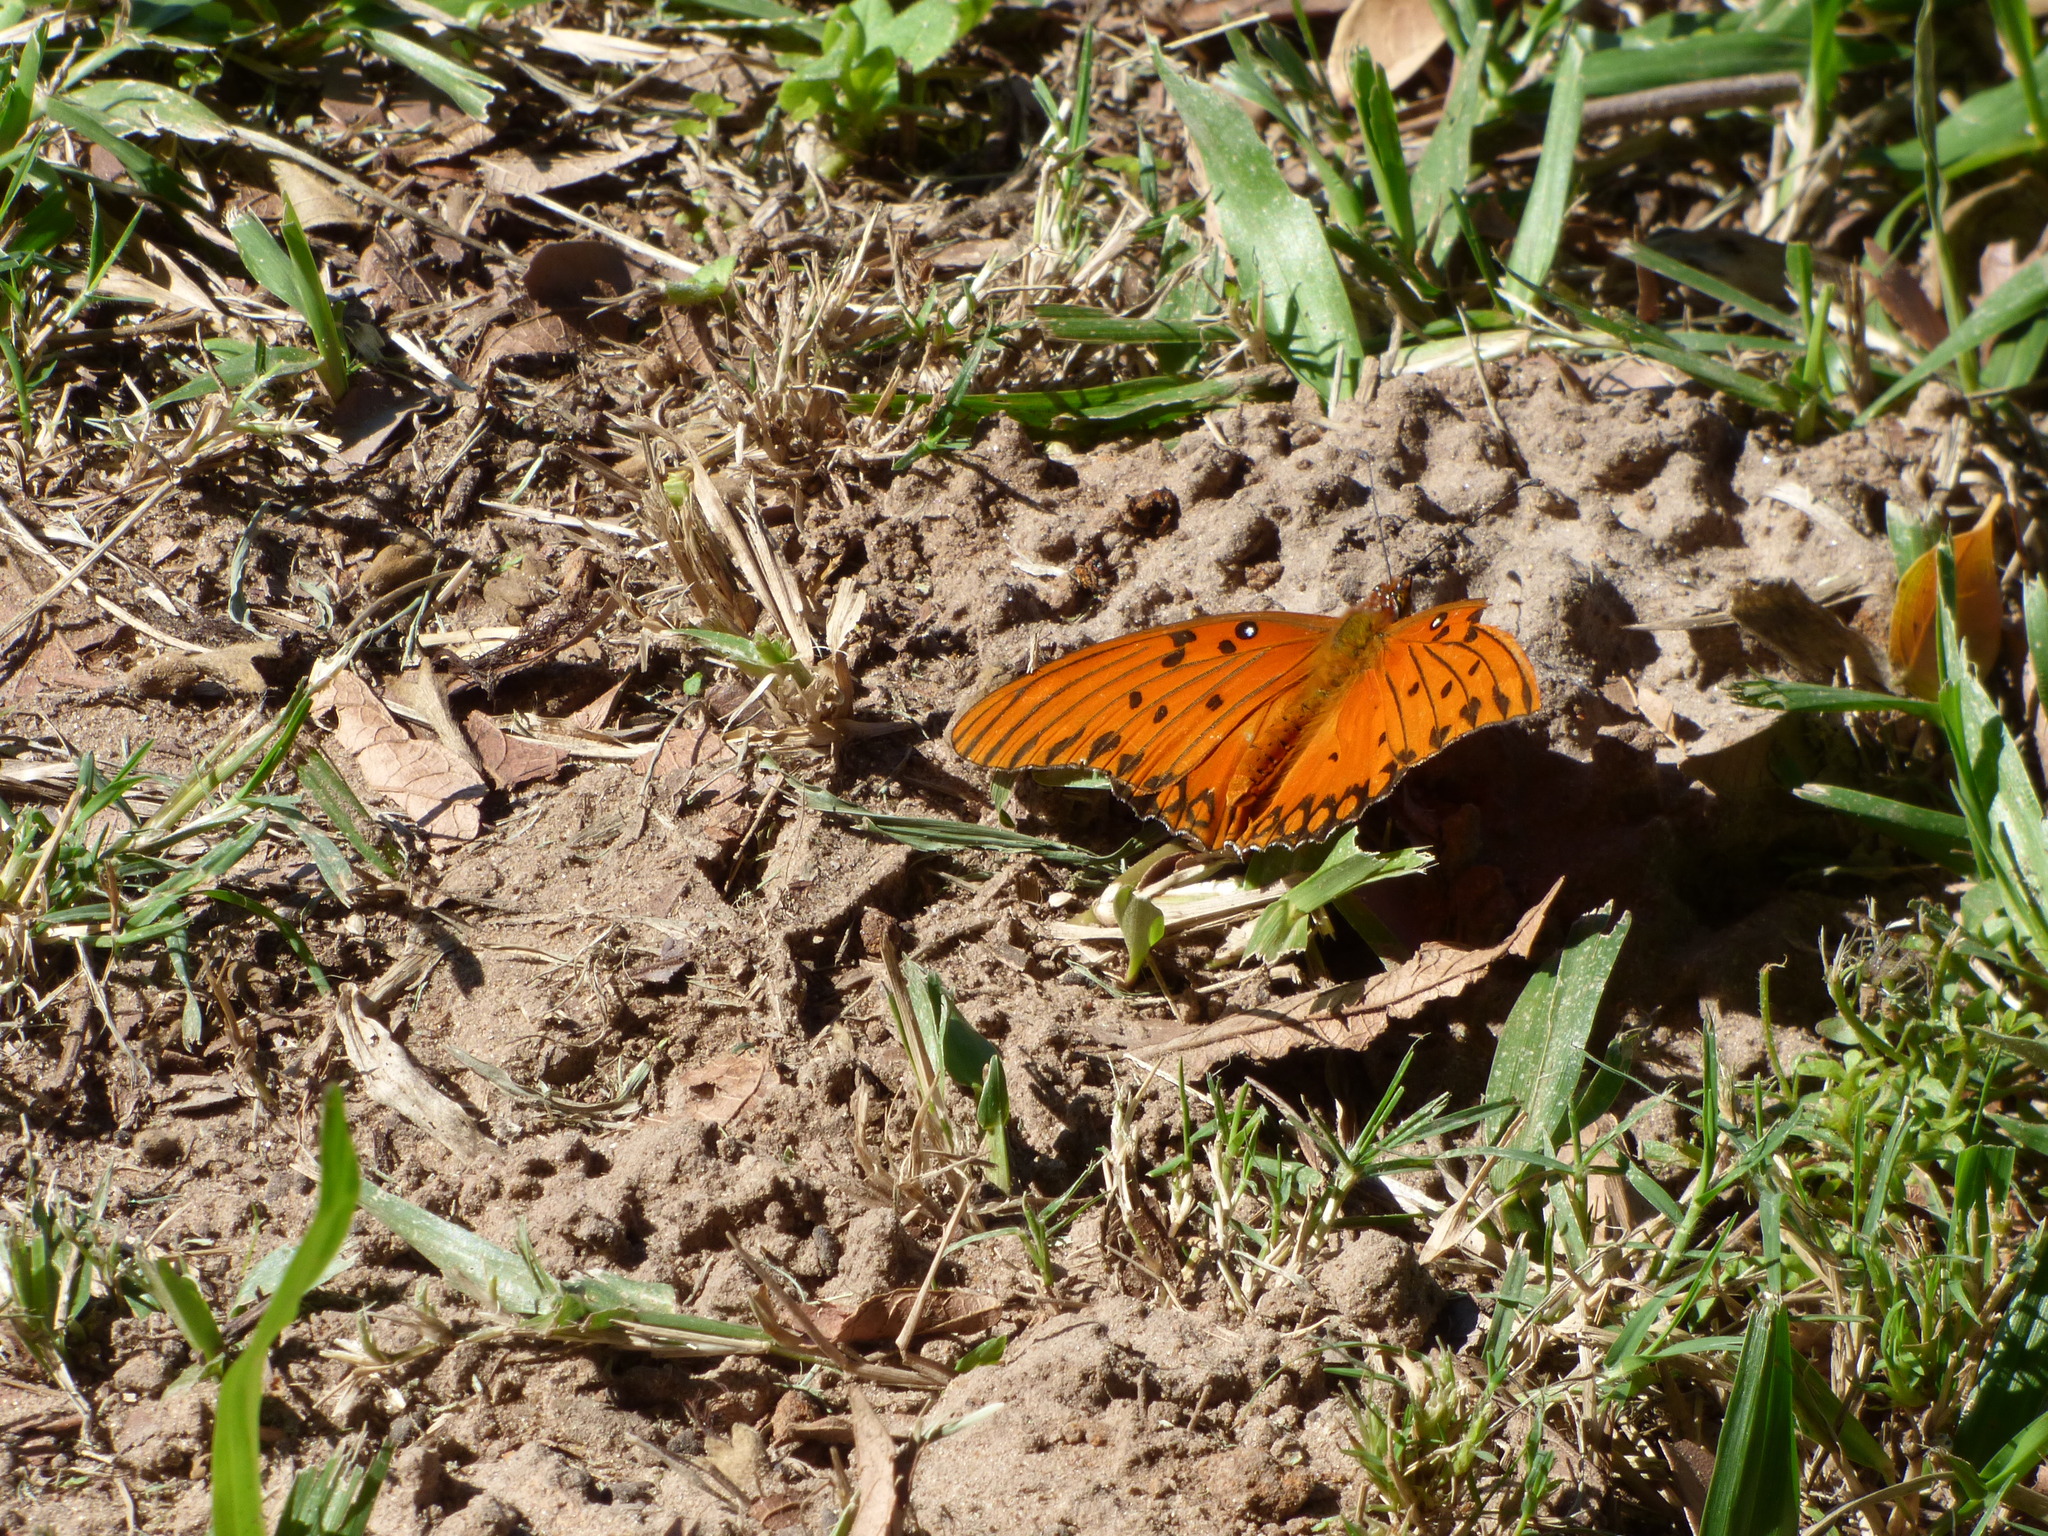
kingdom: Animalia
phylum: Arthropoda
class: Insecta
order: Lepidoptera
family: Nymphalidae
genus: Dione
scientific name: Dione vanillae
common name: Gulf fritillary
